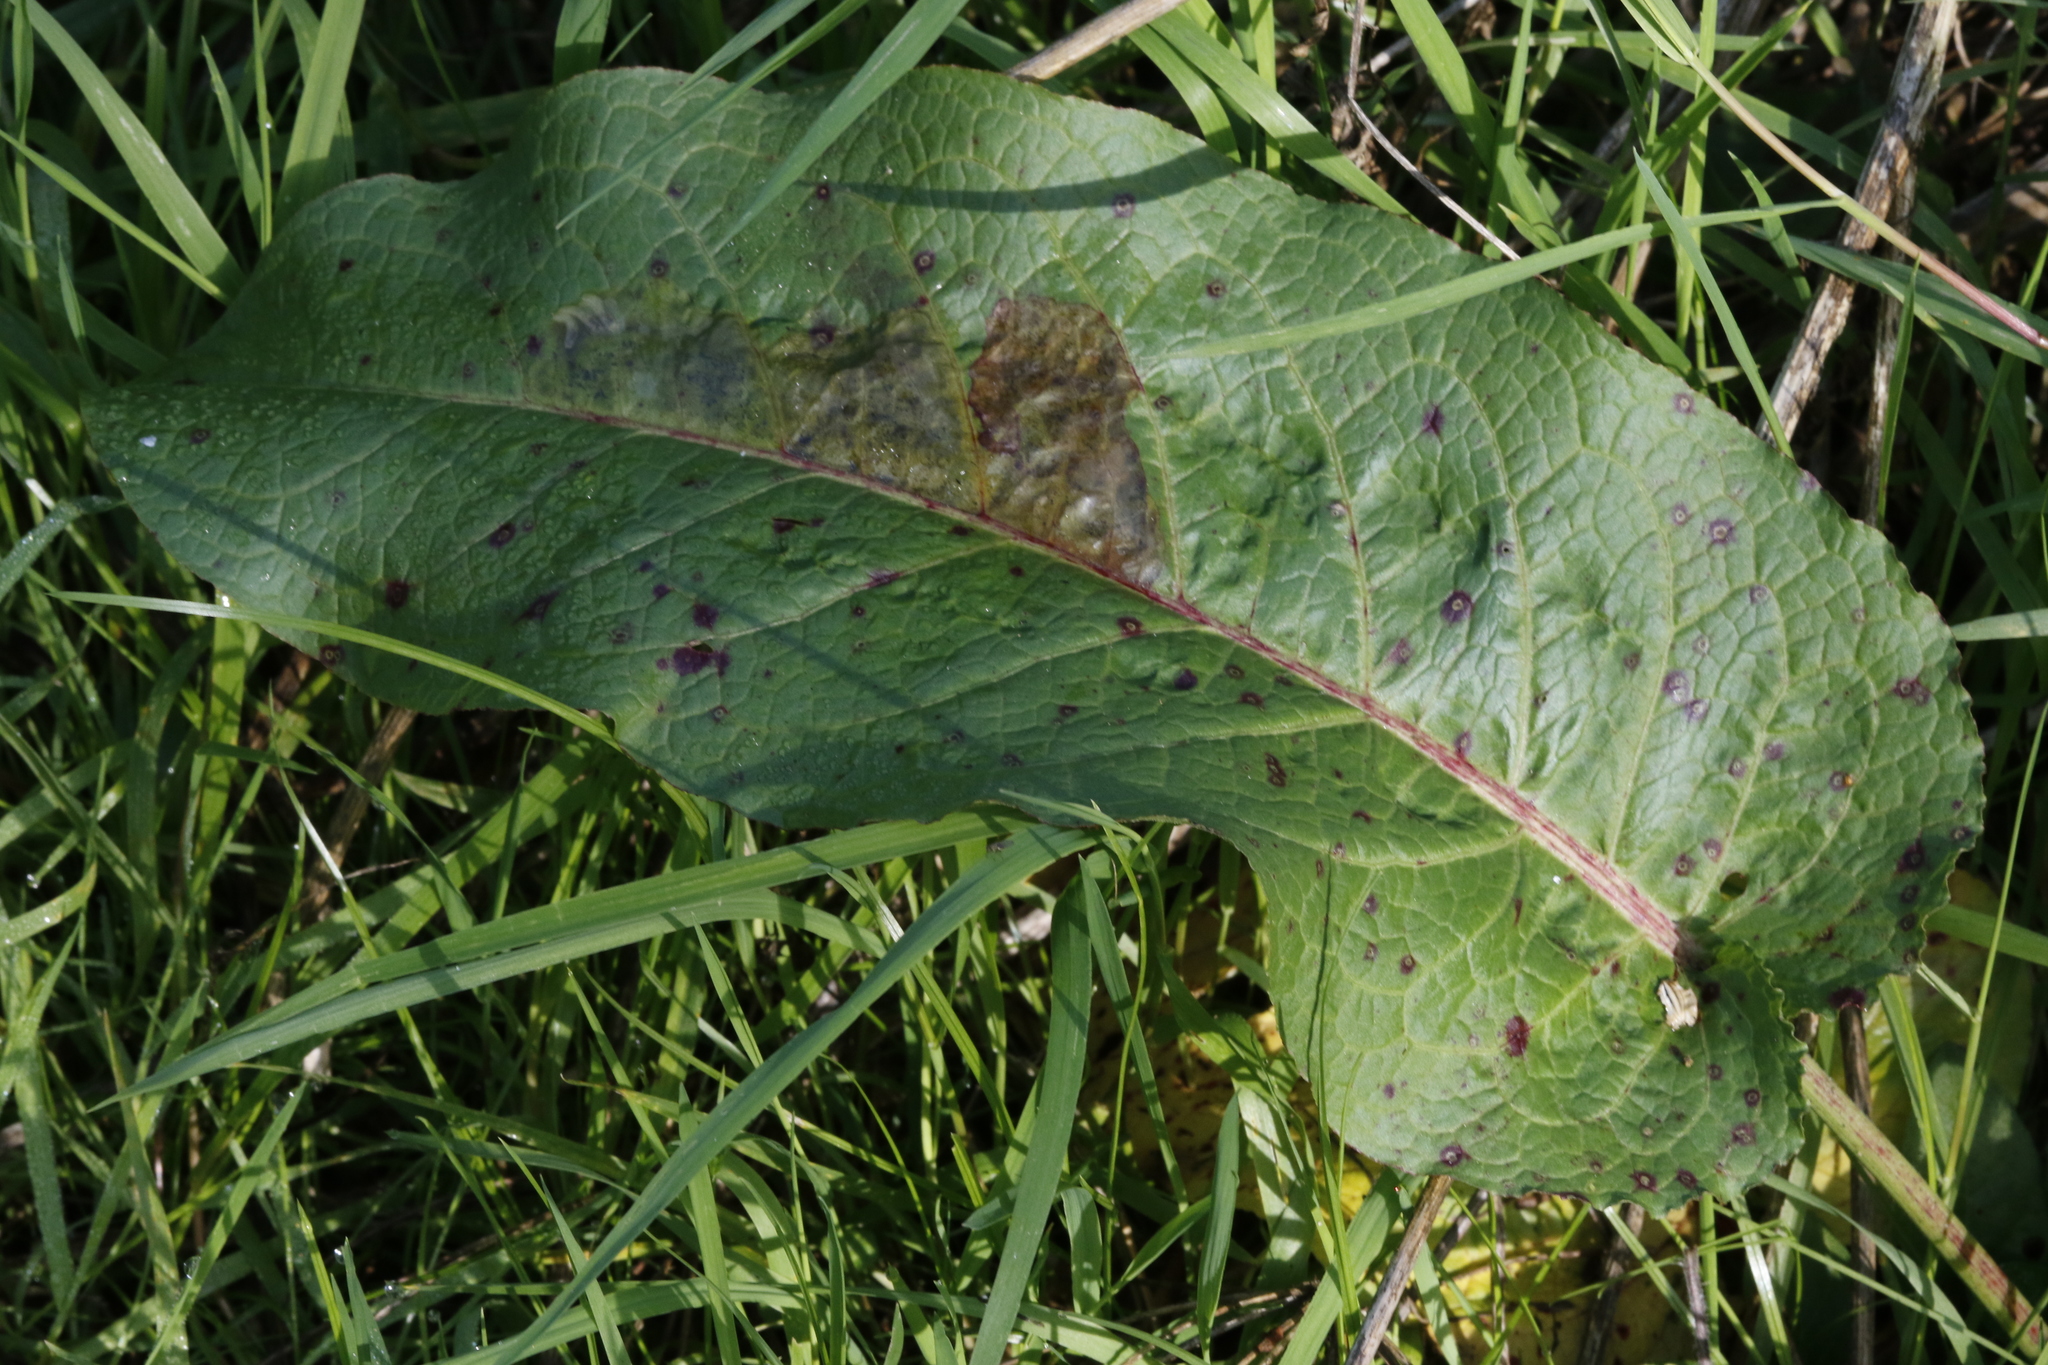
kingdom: Plantae
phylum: Tracheophyta
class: Magnoliopsida
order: Caryophyllales
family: Polygonaceae
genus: Rumex
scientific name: Rumex obtusifolius
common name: Bitter dock
